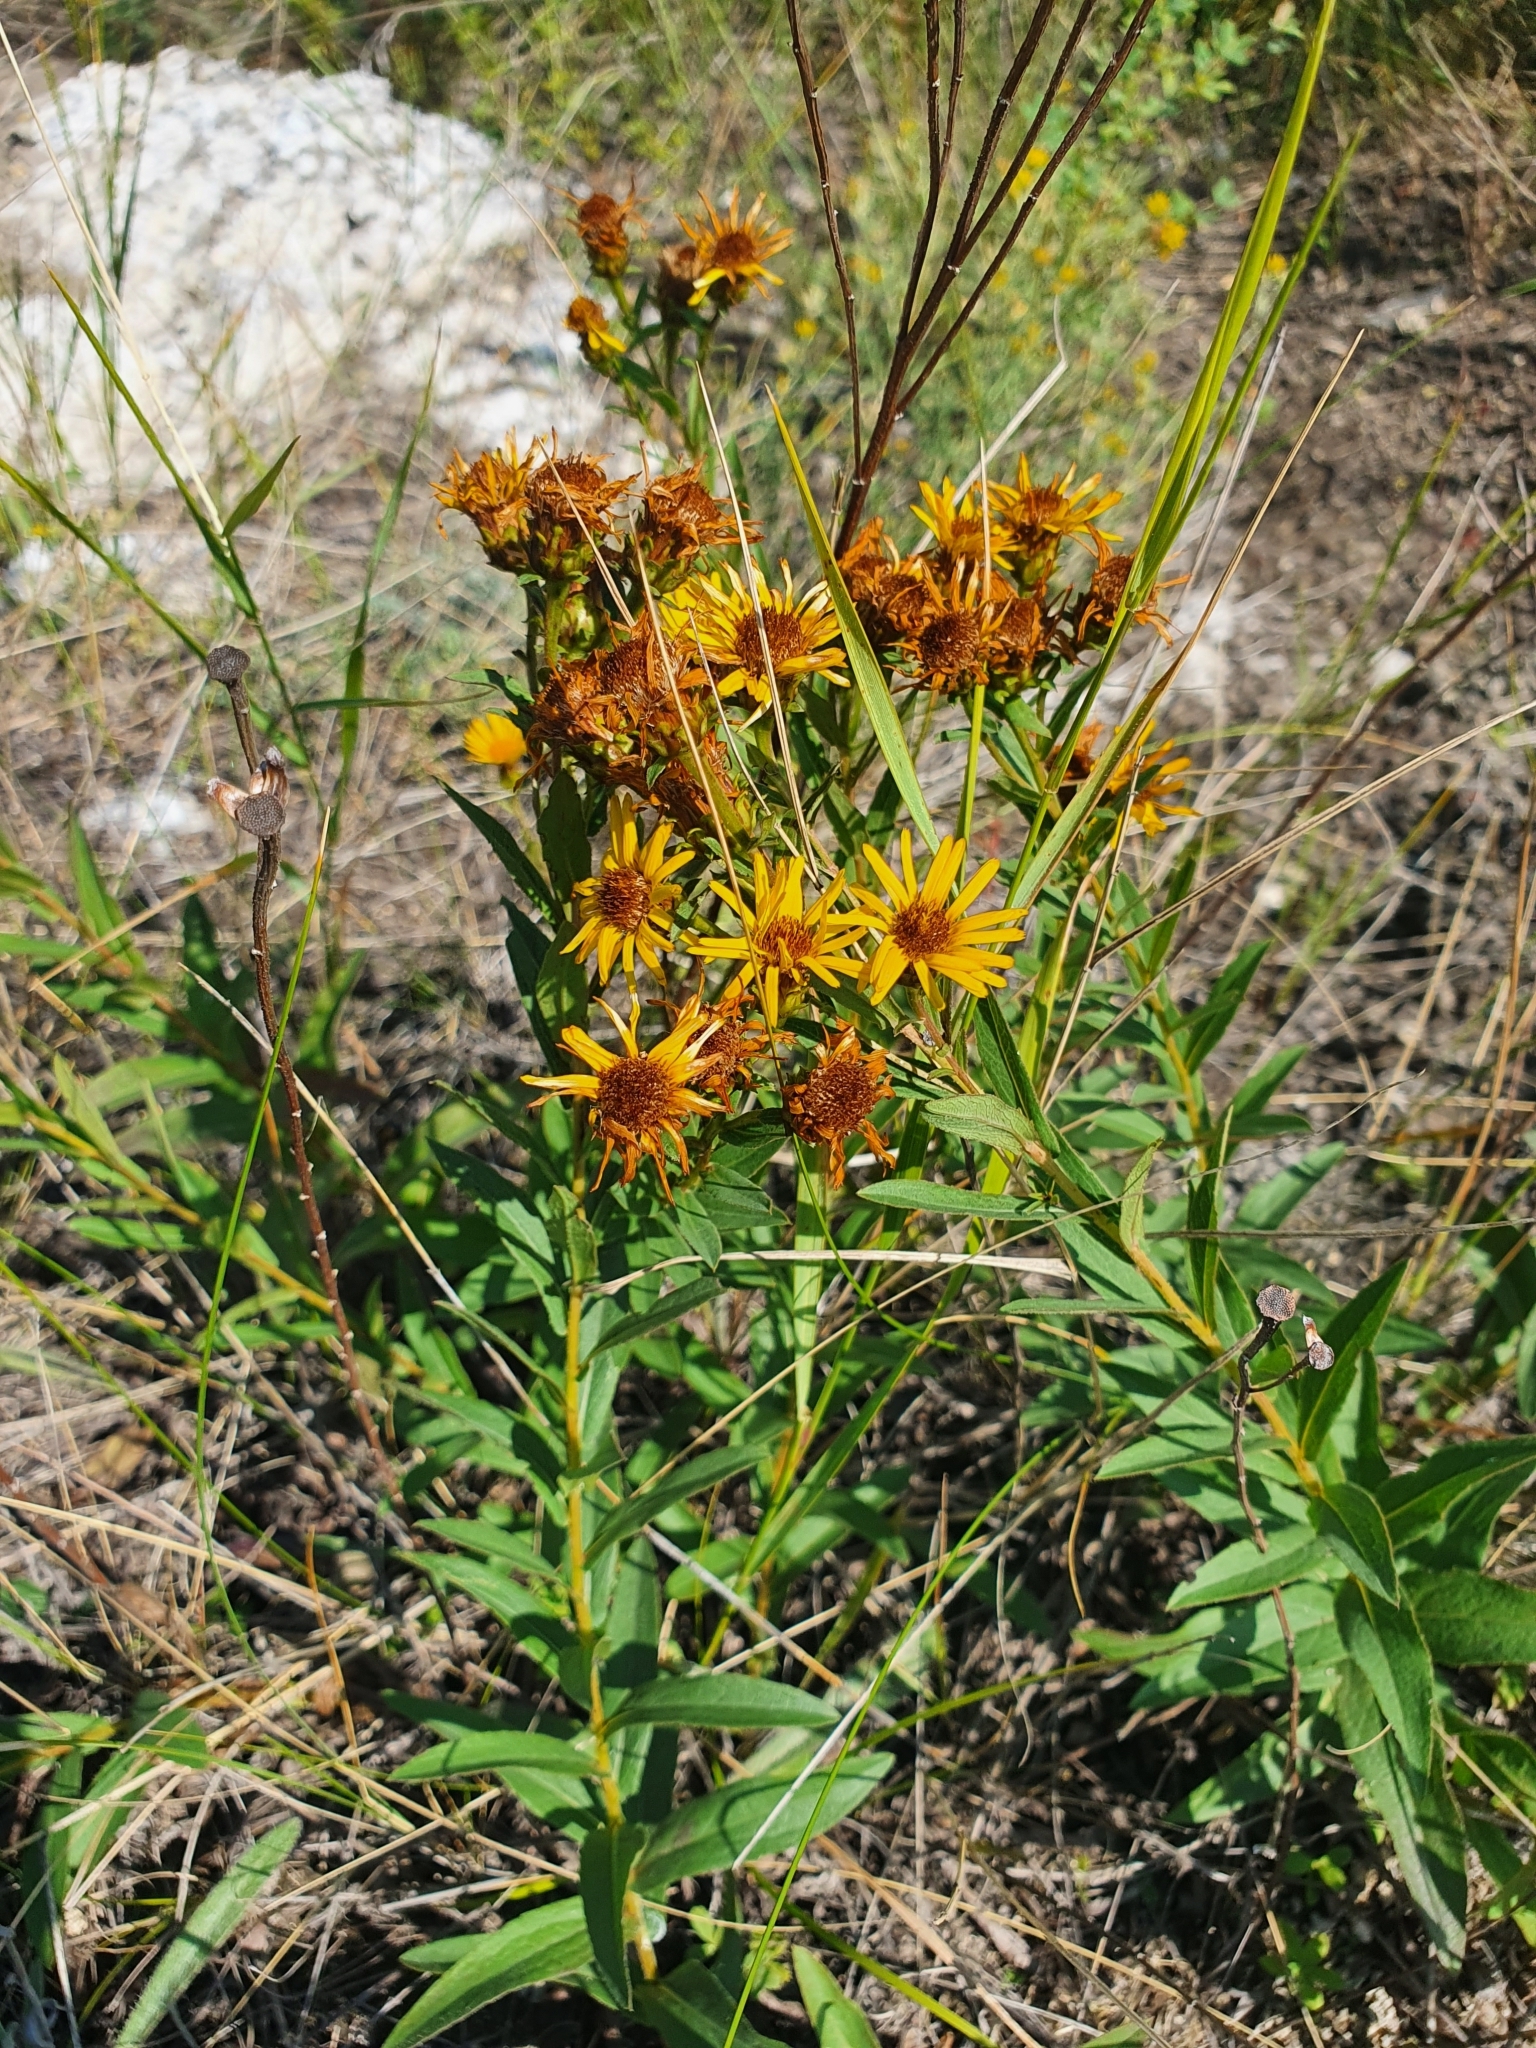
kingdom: Plantae
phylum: Tracheophyta
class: Magnoliopsida
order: Asterales
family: Asteraceae
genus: Pentanema
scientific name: Pentanema asperum
